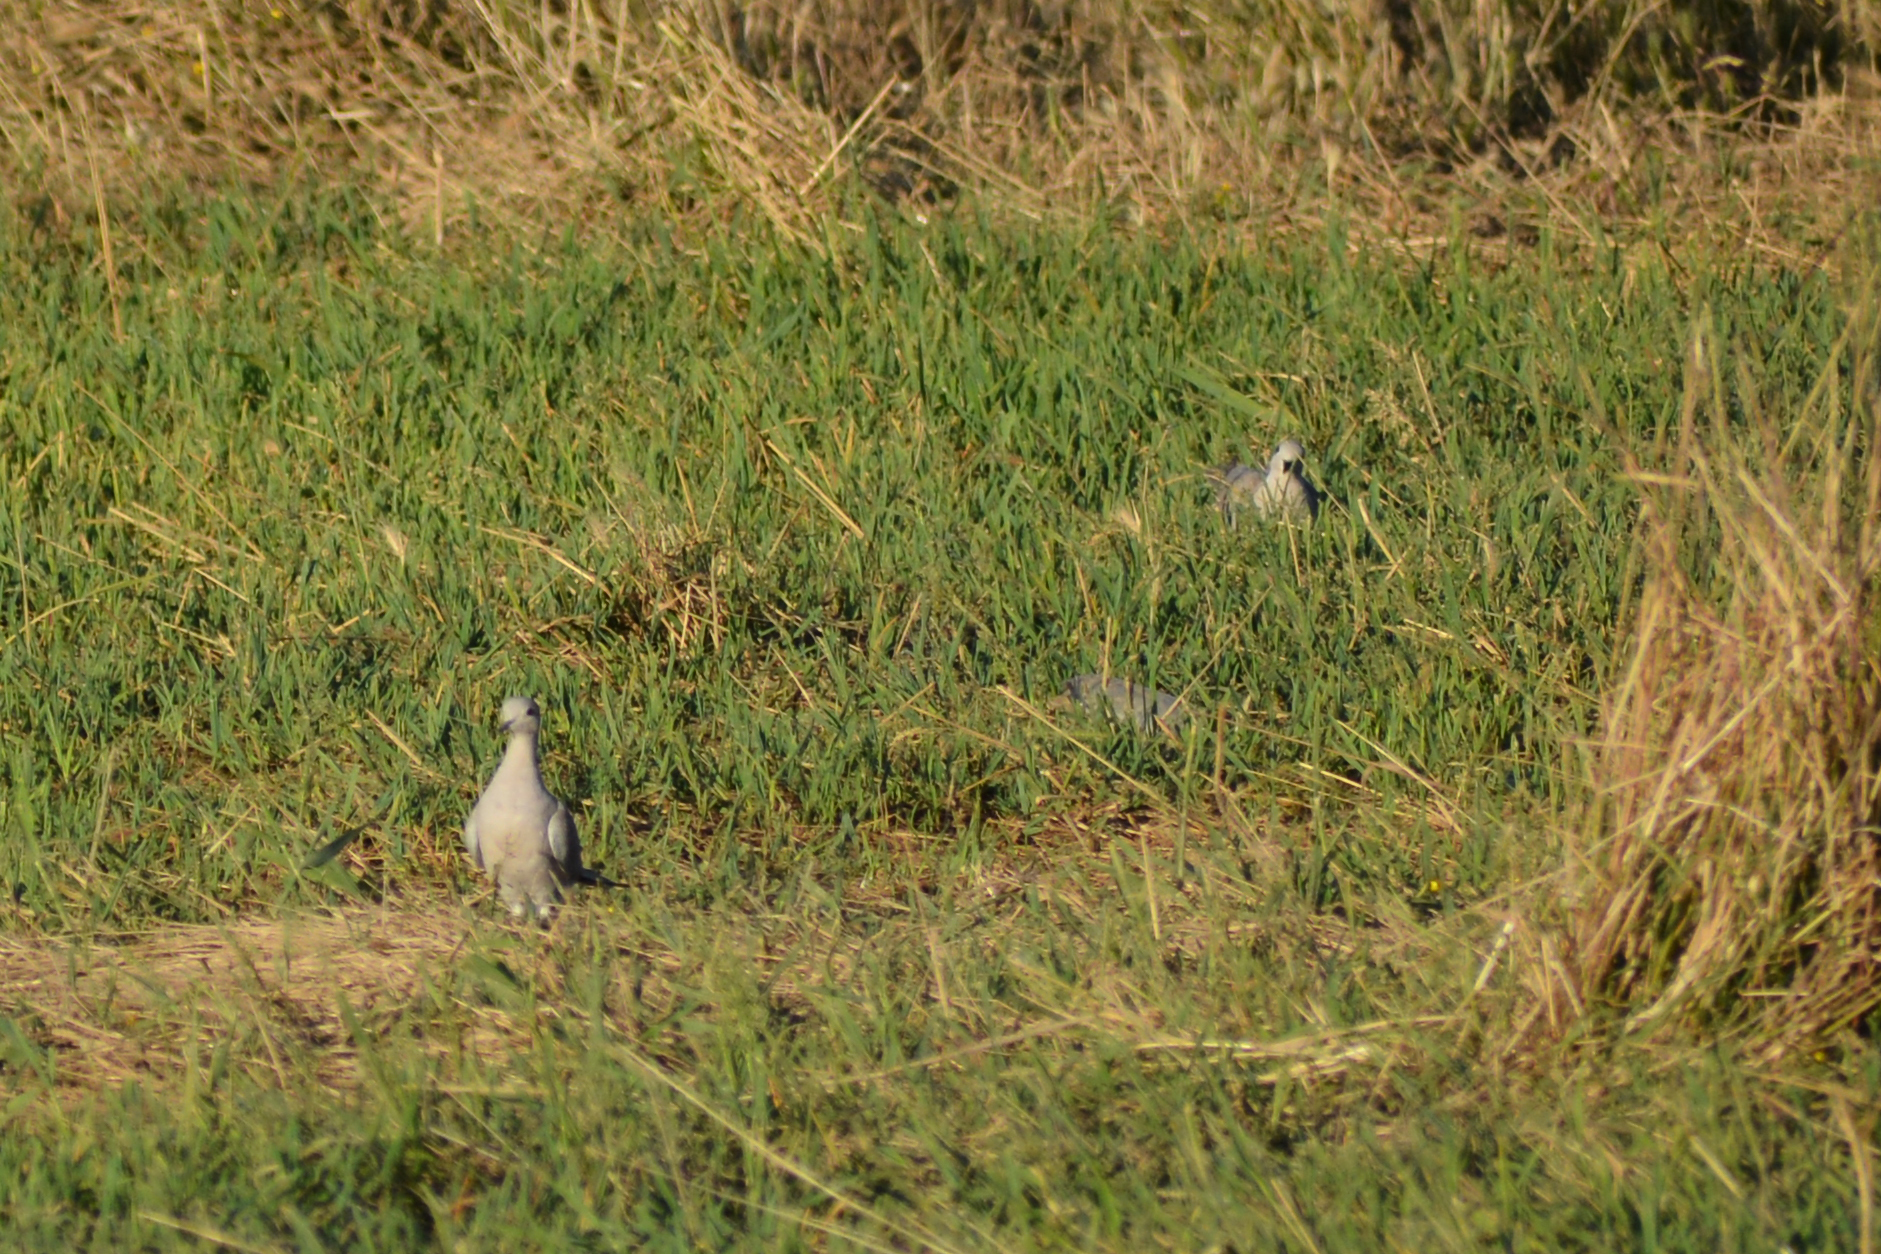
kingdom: Animalia
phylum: Chordata
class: Aves
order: Columbiformes
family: Columbidae
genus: Streptopelia
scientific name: Streptopelia decaocto
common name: Eurasian collared dove
